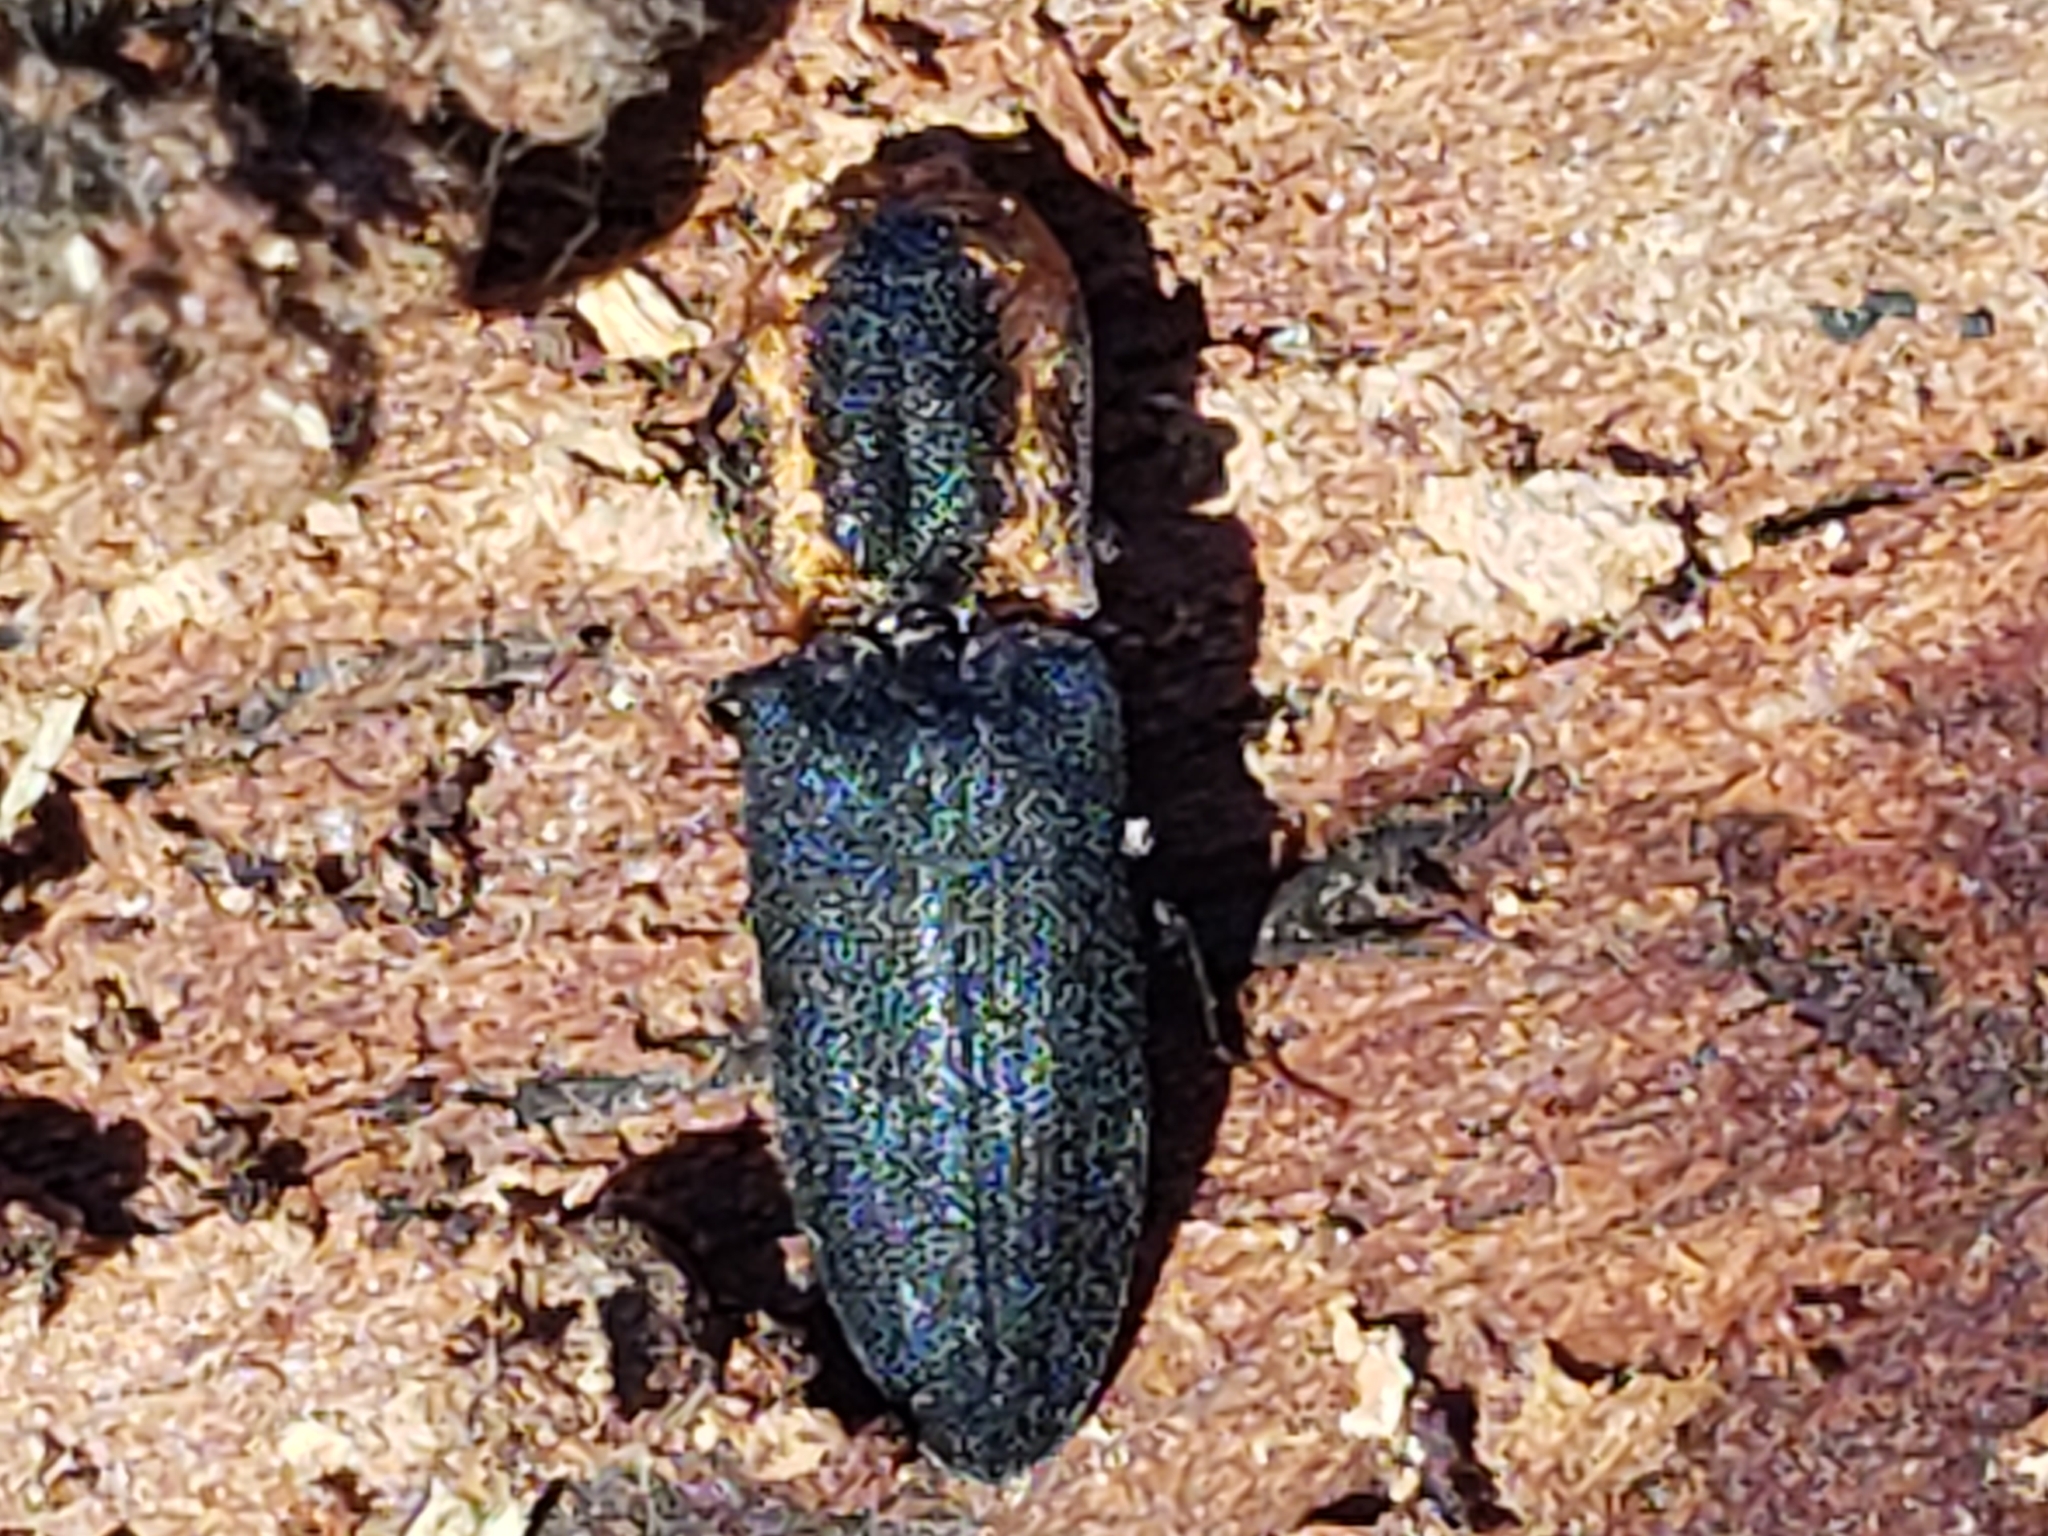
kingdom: Animalia
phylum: Arthropoda
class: Insecta
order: Coleoptera
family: Elateridae
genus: Lacon
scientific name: Lacon discoideus
